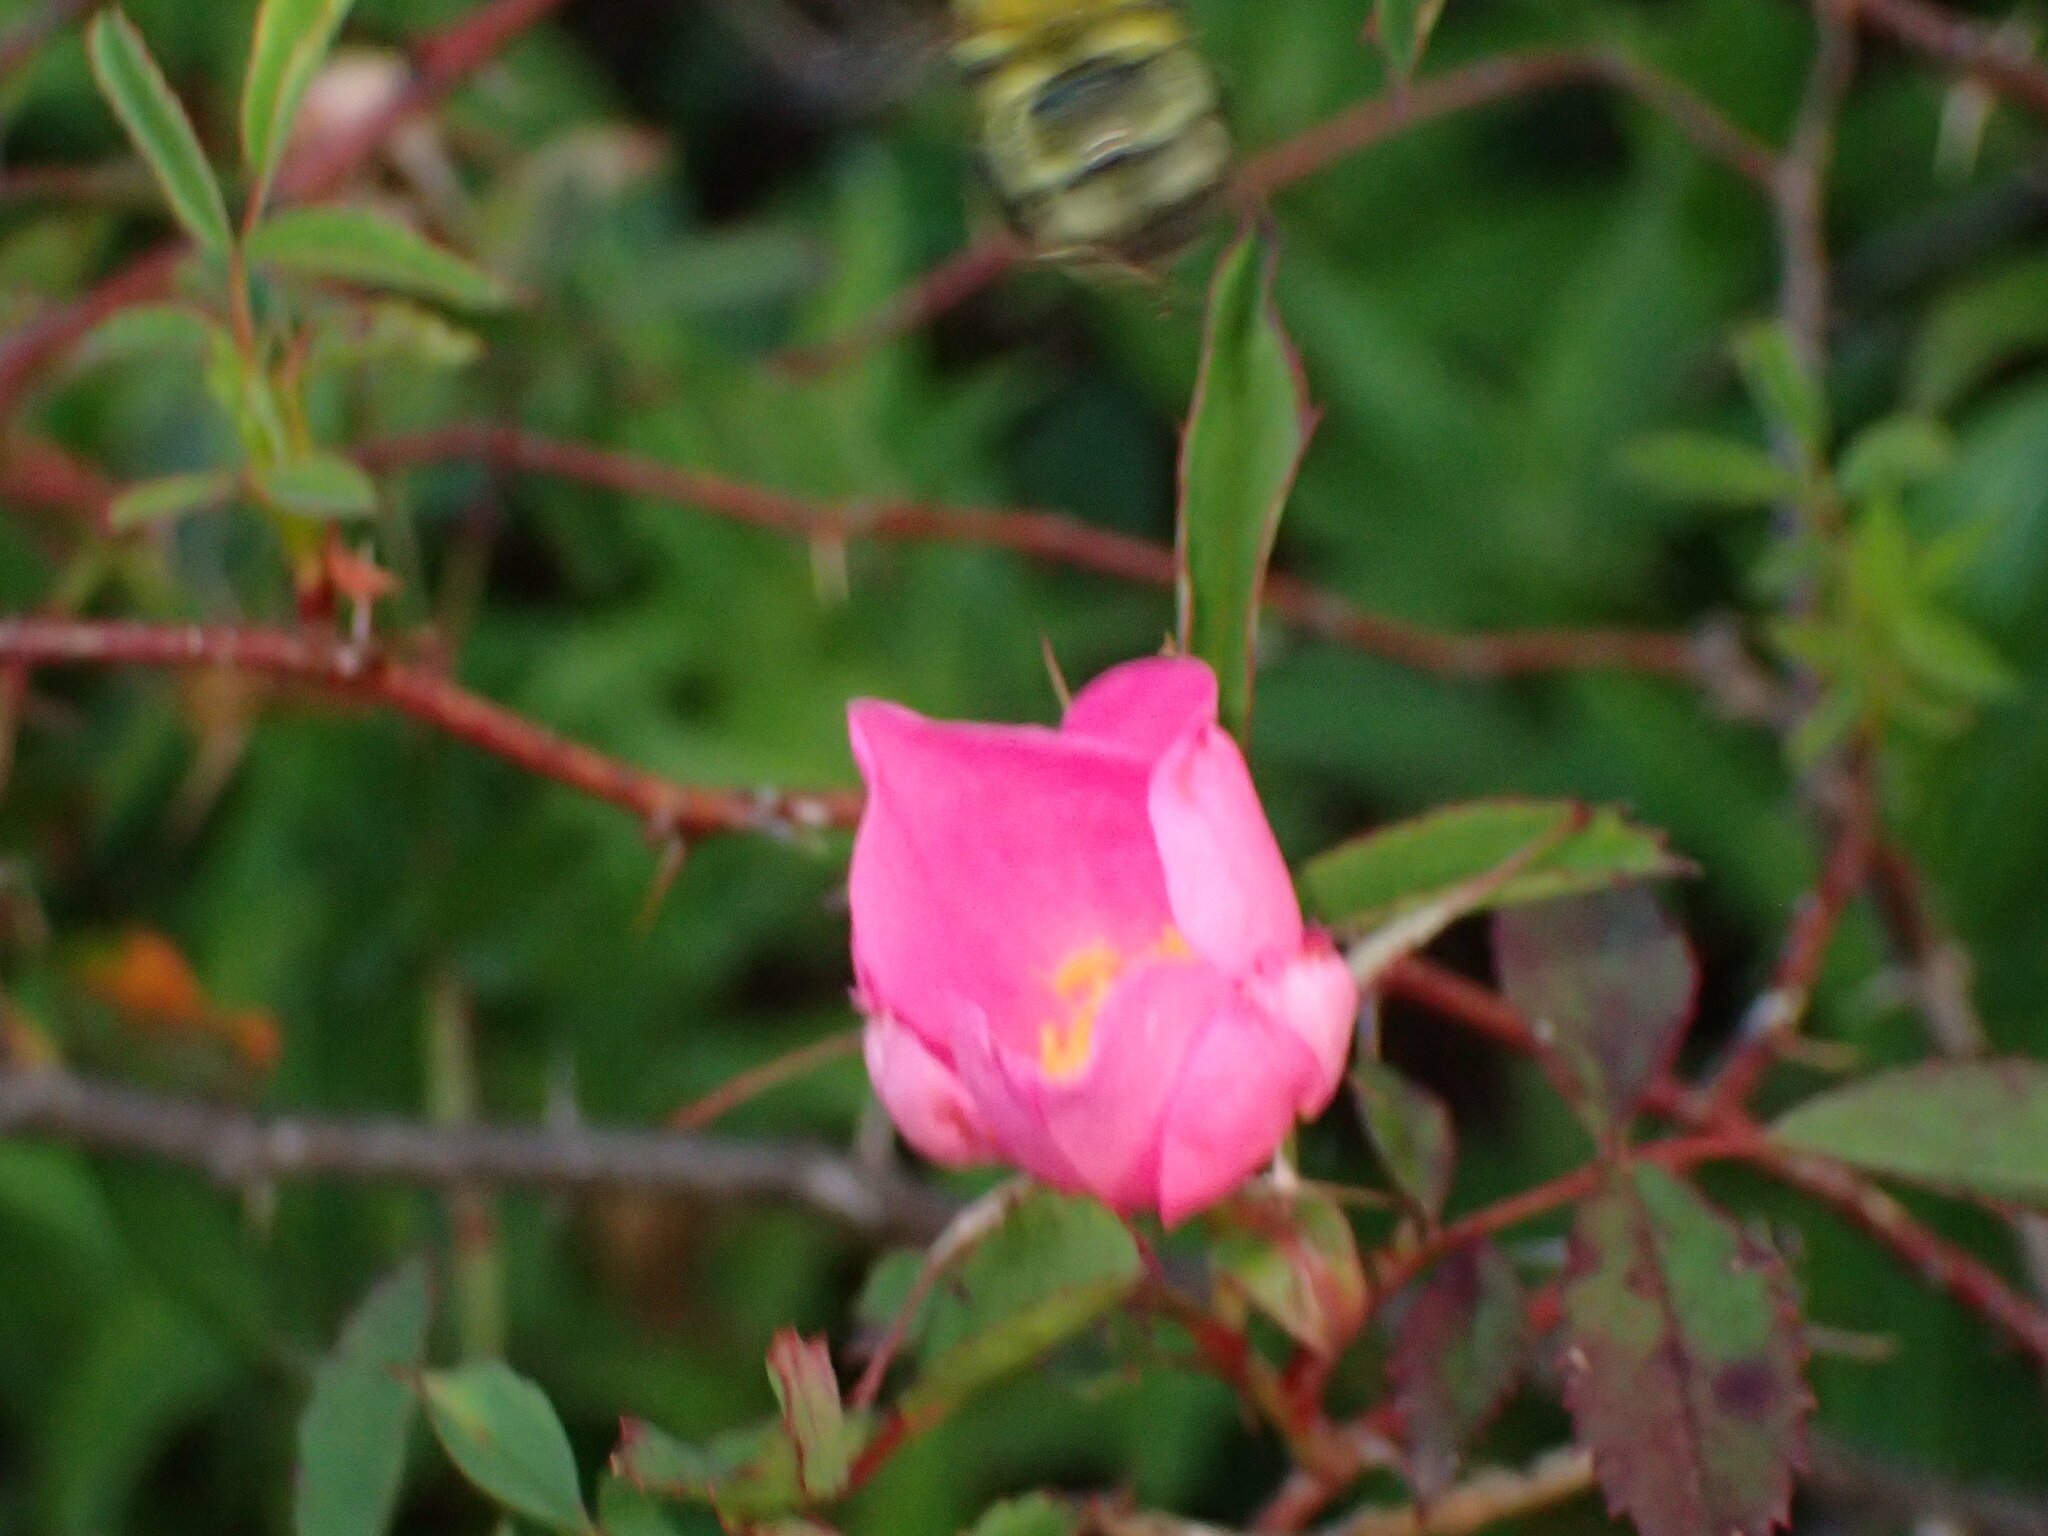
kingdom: Animalia
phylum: Arthropoda
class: Insecta
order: Hymenoptera
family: Apidae
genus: Bombus
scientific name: Bombus perplexus
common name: Confusing bumble bee
